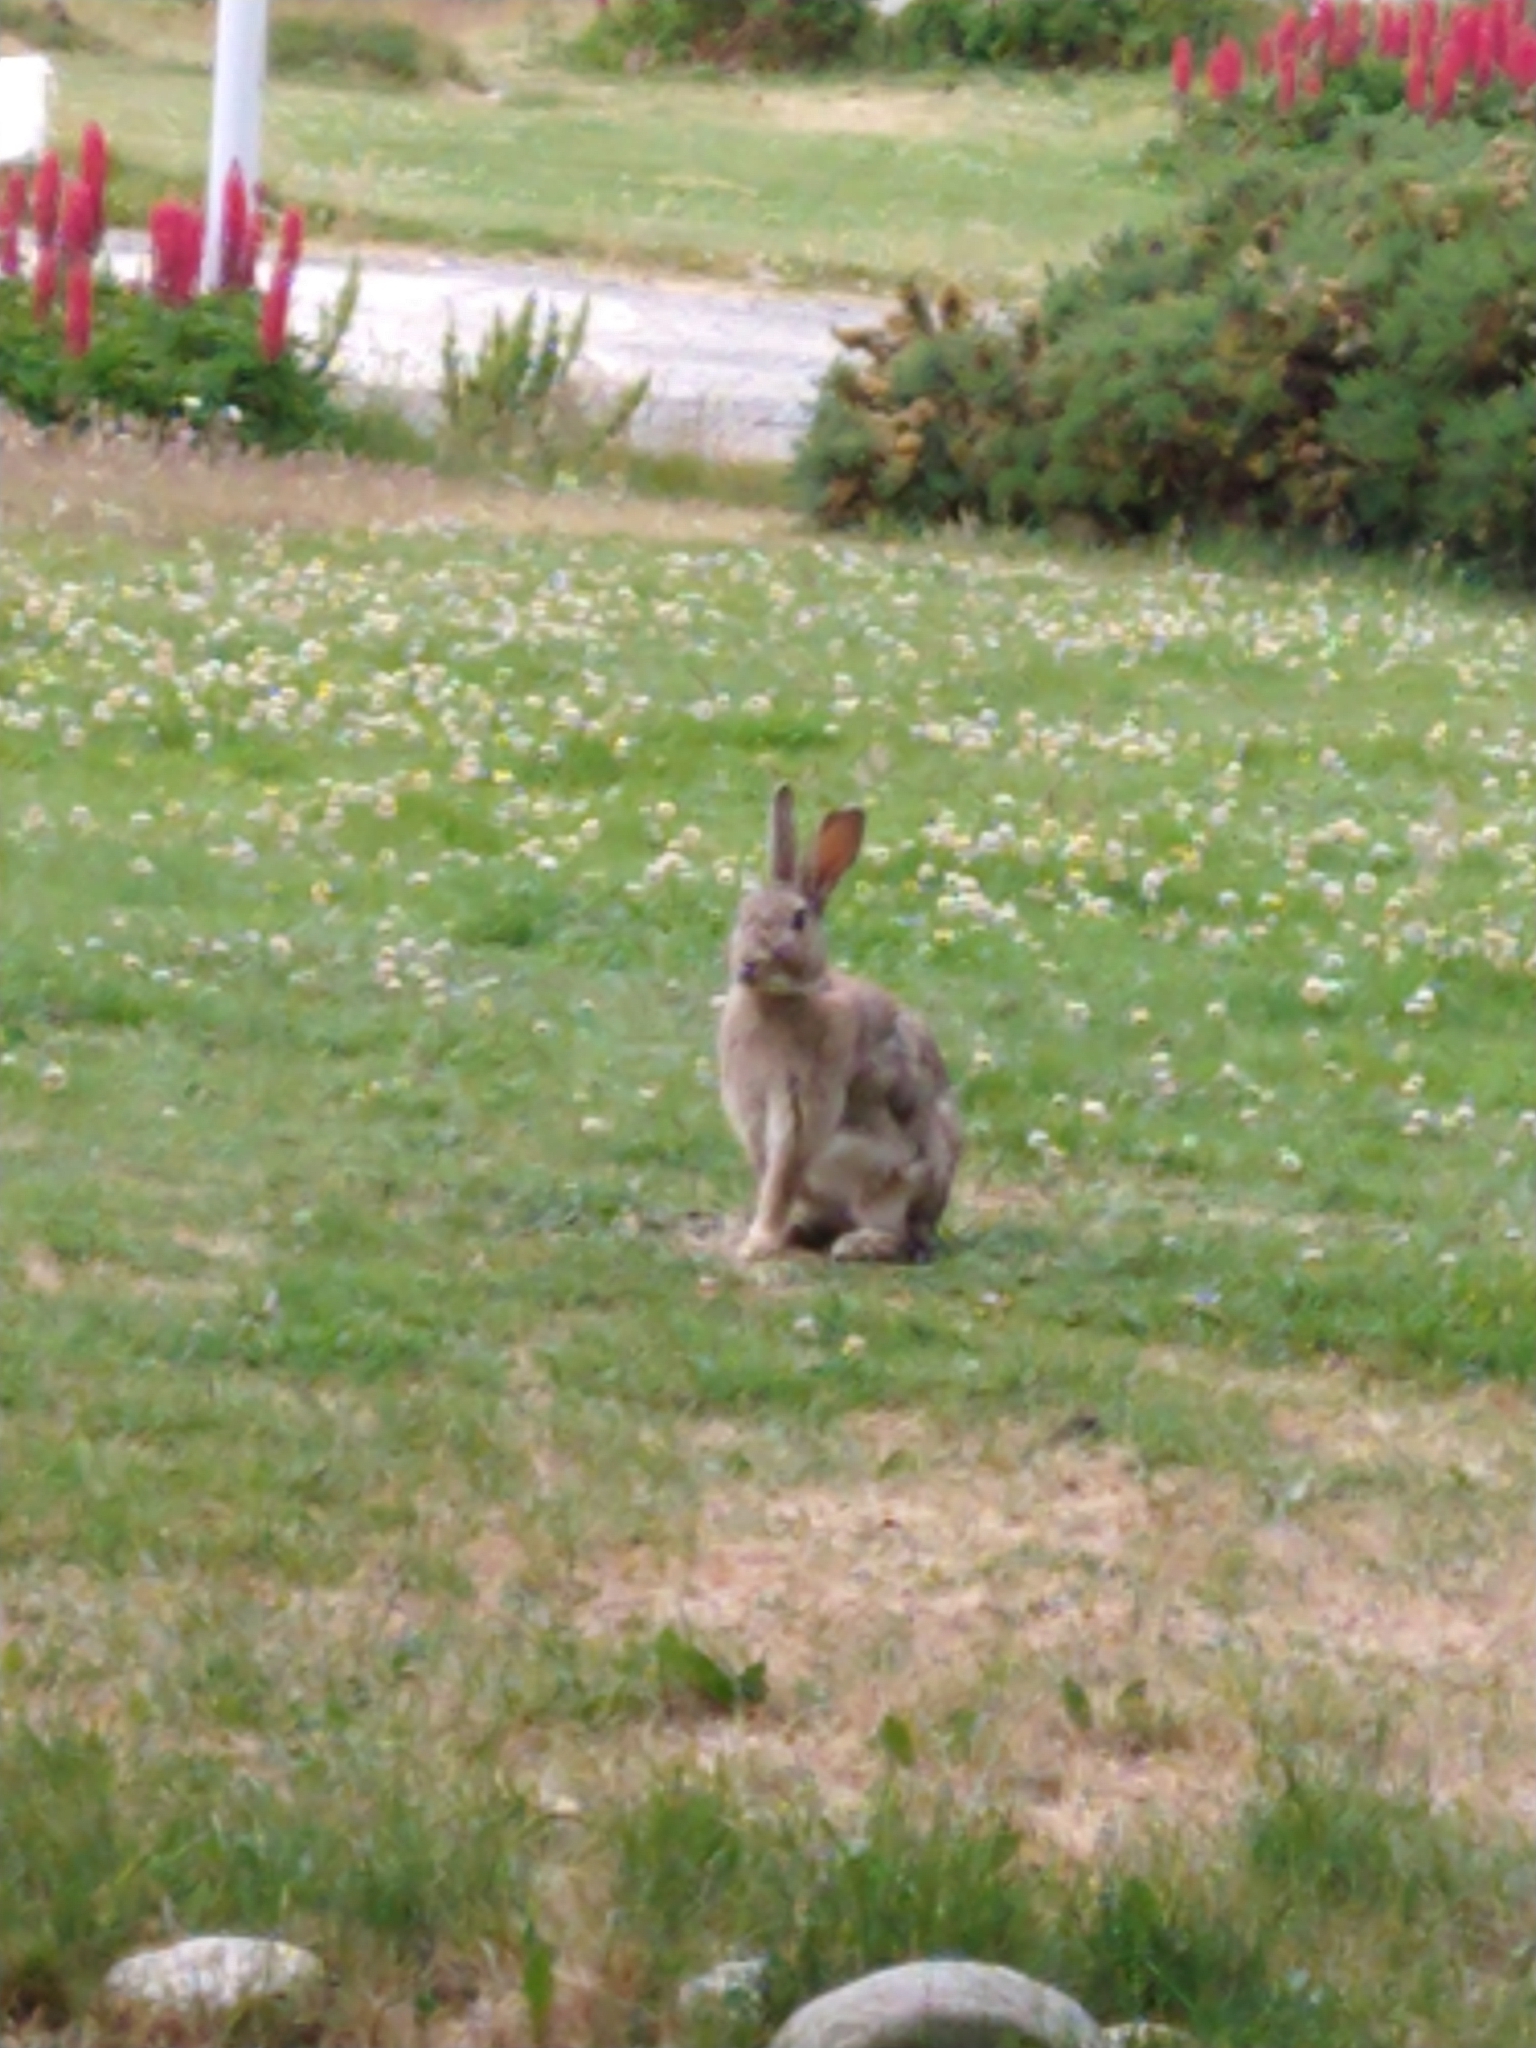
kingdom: Animalia
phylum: Chordata
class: Mammalia
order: Lagomorpha
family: Leporidae
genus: Oryctolagus
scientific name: Oryctolagus cuniculus
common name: European rabbit
